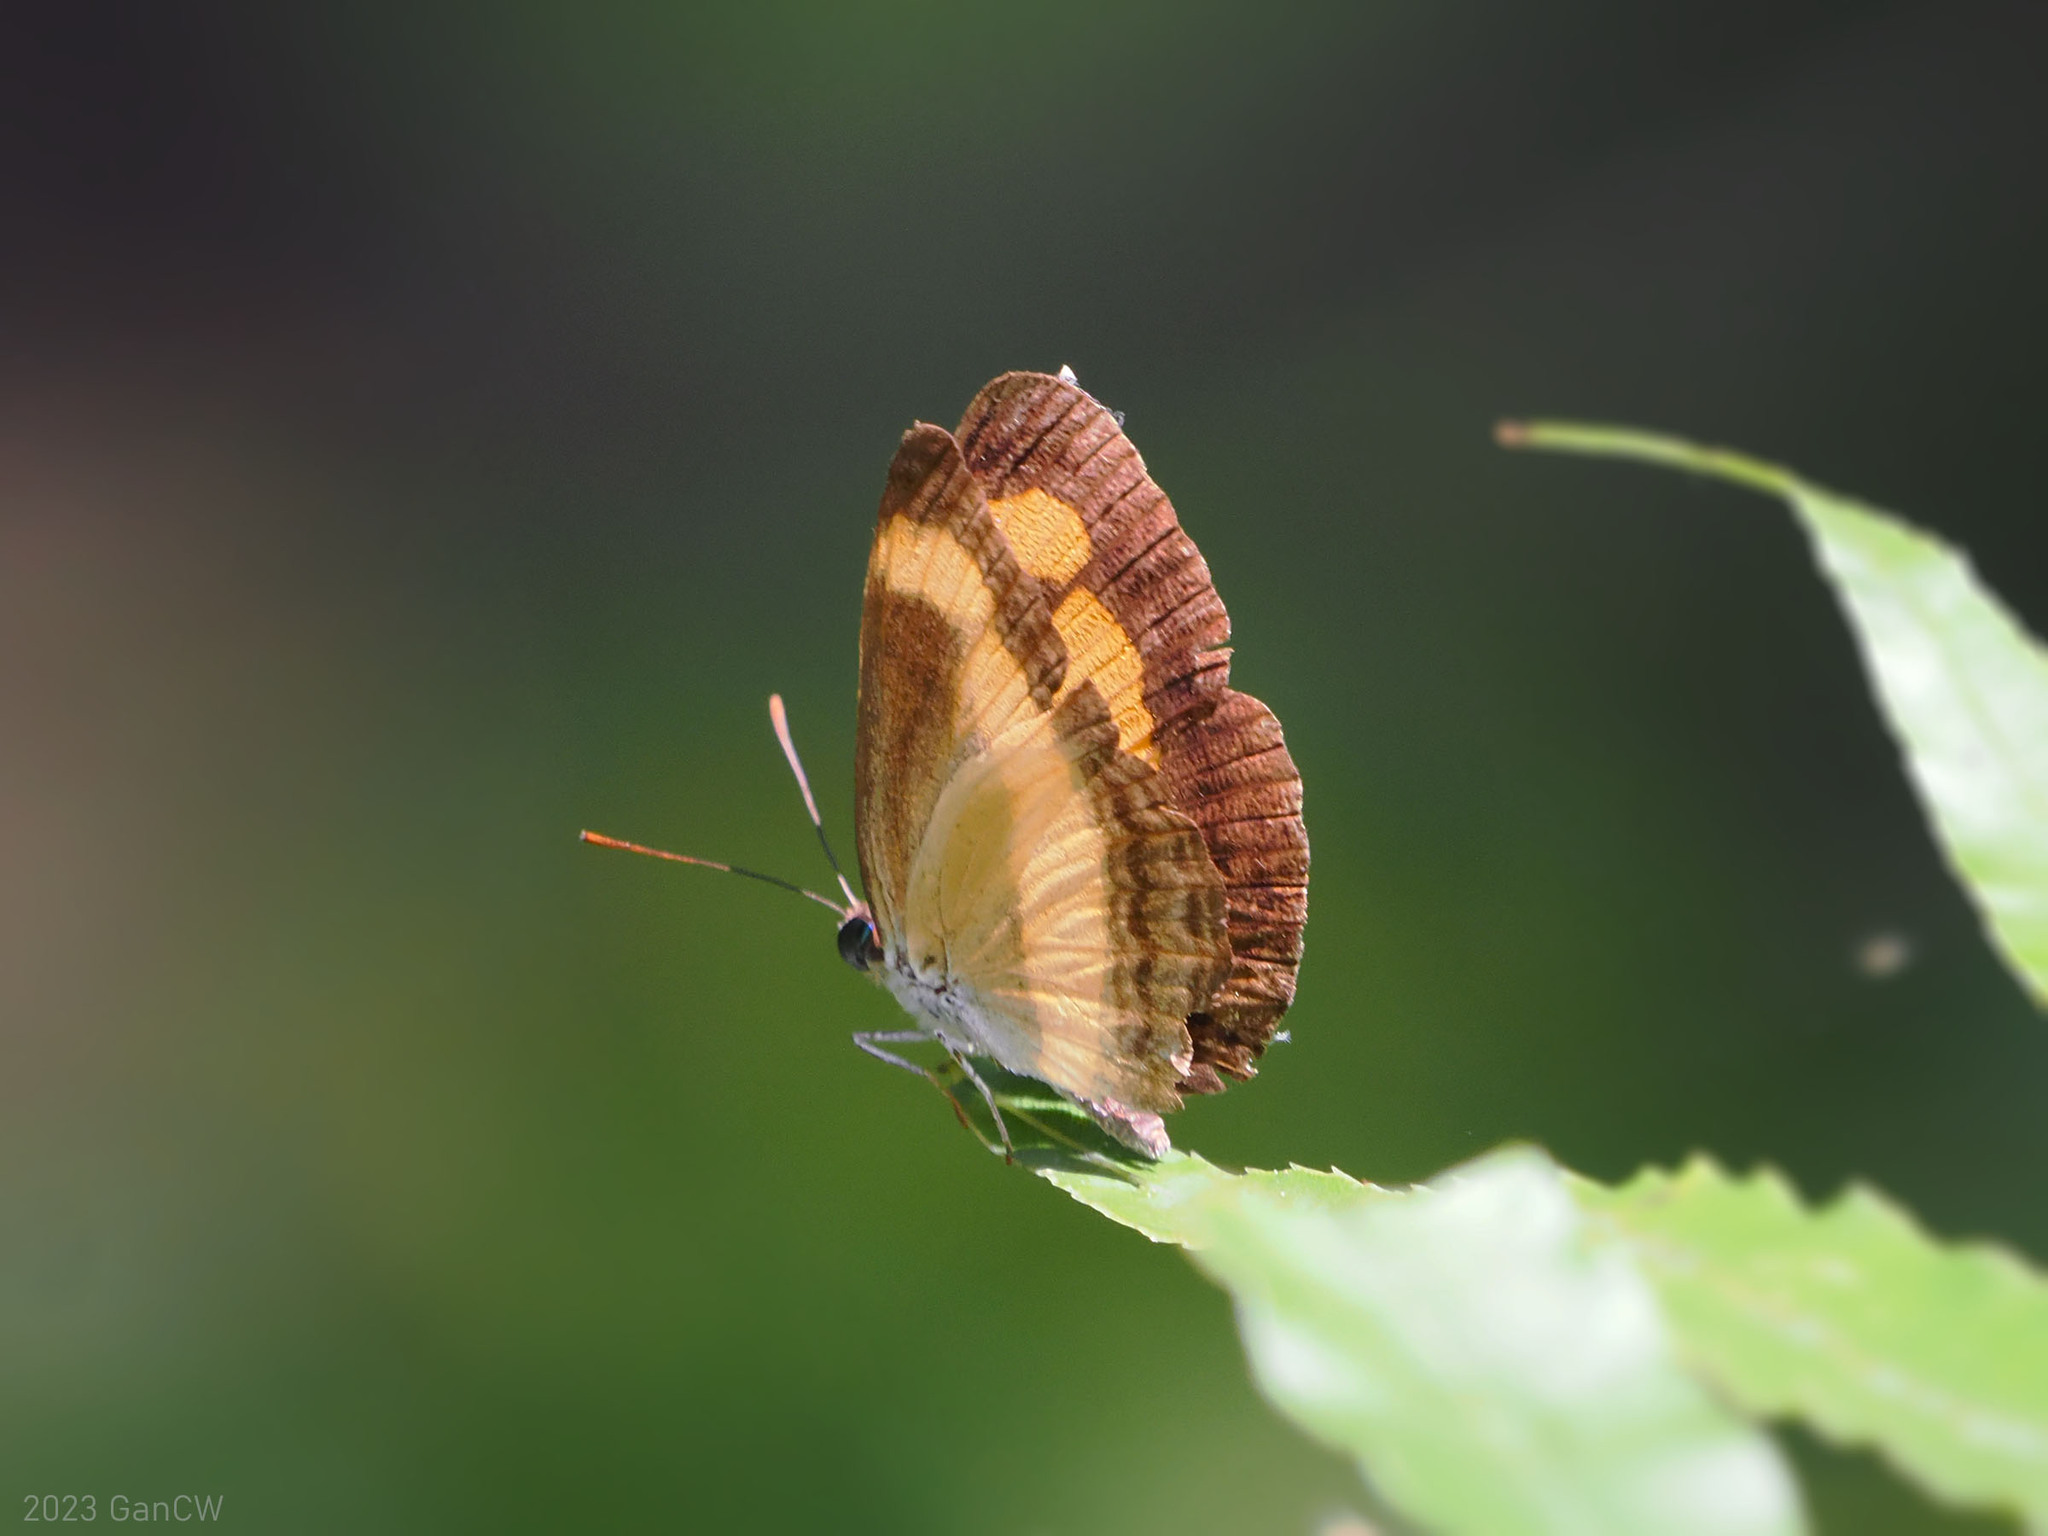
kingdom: Animalia
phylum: Arthropoda
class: Insecta
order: Lepidoptera
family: Nymphalidae
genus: Pantoporia
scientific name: Pantoporia consimilis
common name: Orange plane
